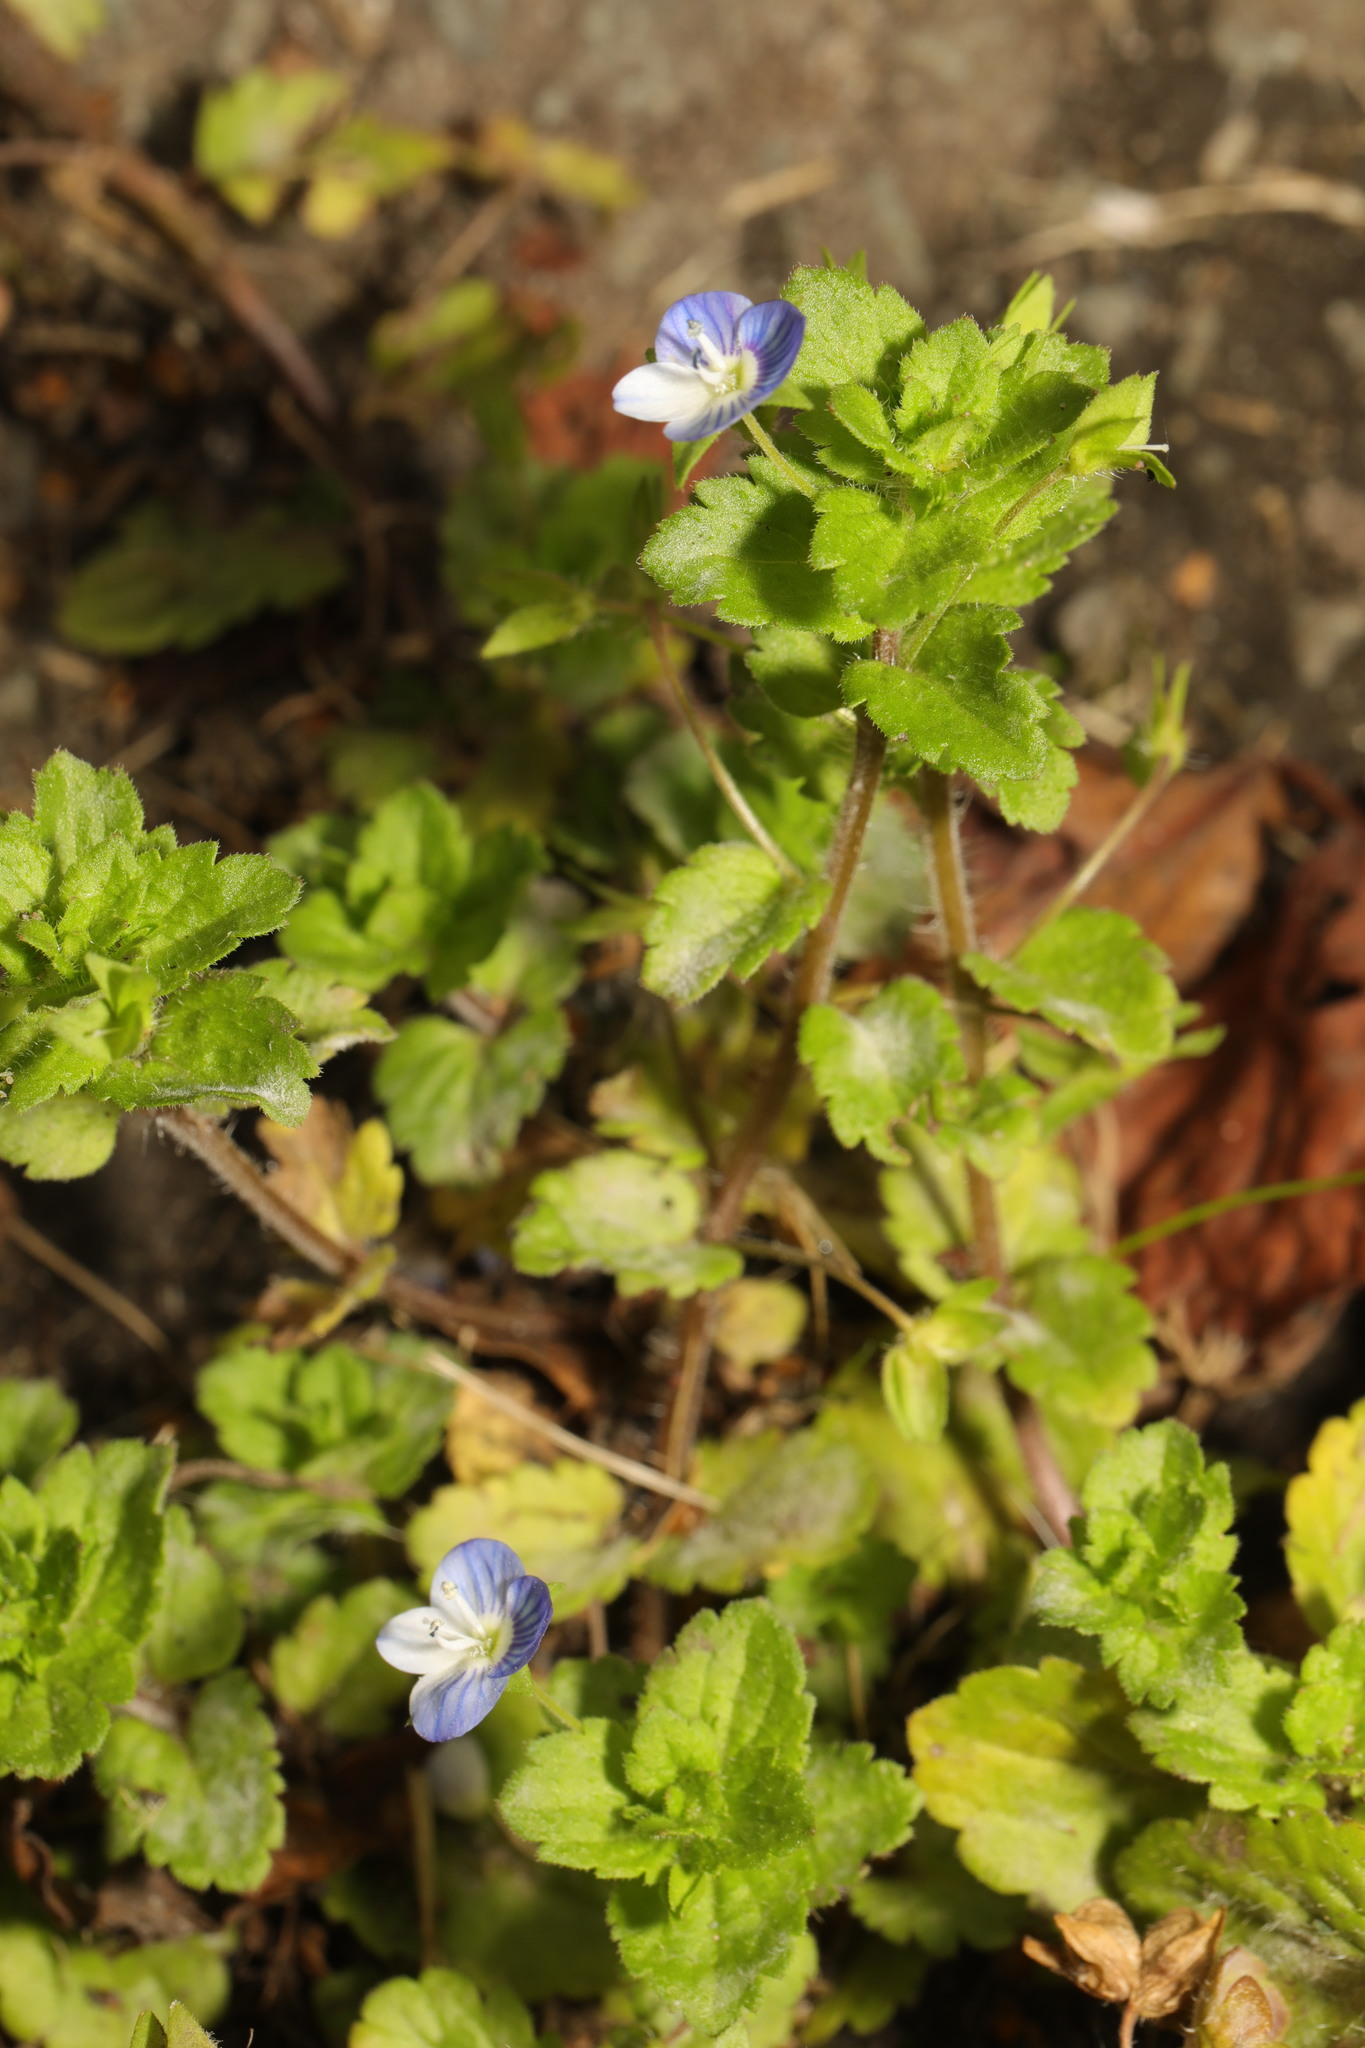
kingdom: Plantae
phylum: Tracheophyta
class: Magnoliopsida
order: Lamiales
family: Plantaginaceae
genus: Veronica
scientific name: Veronica persica
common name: Common field-speedwell
